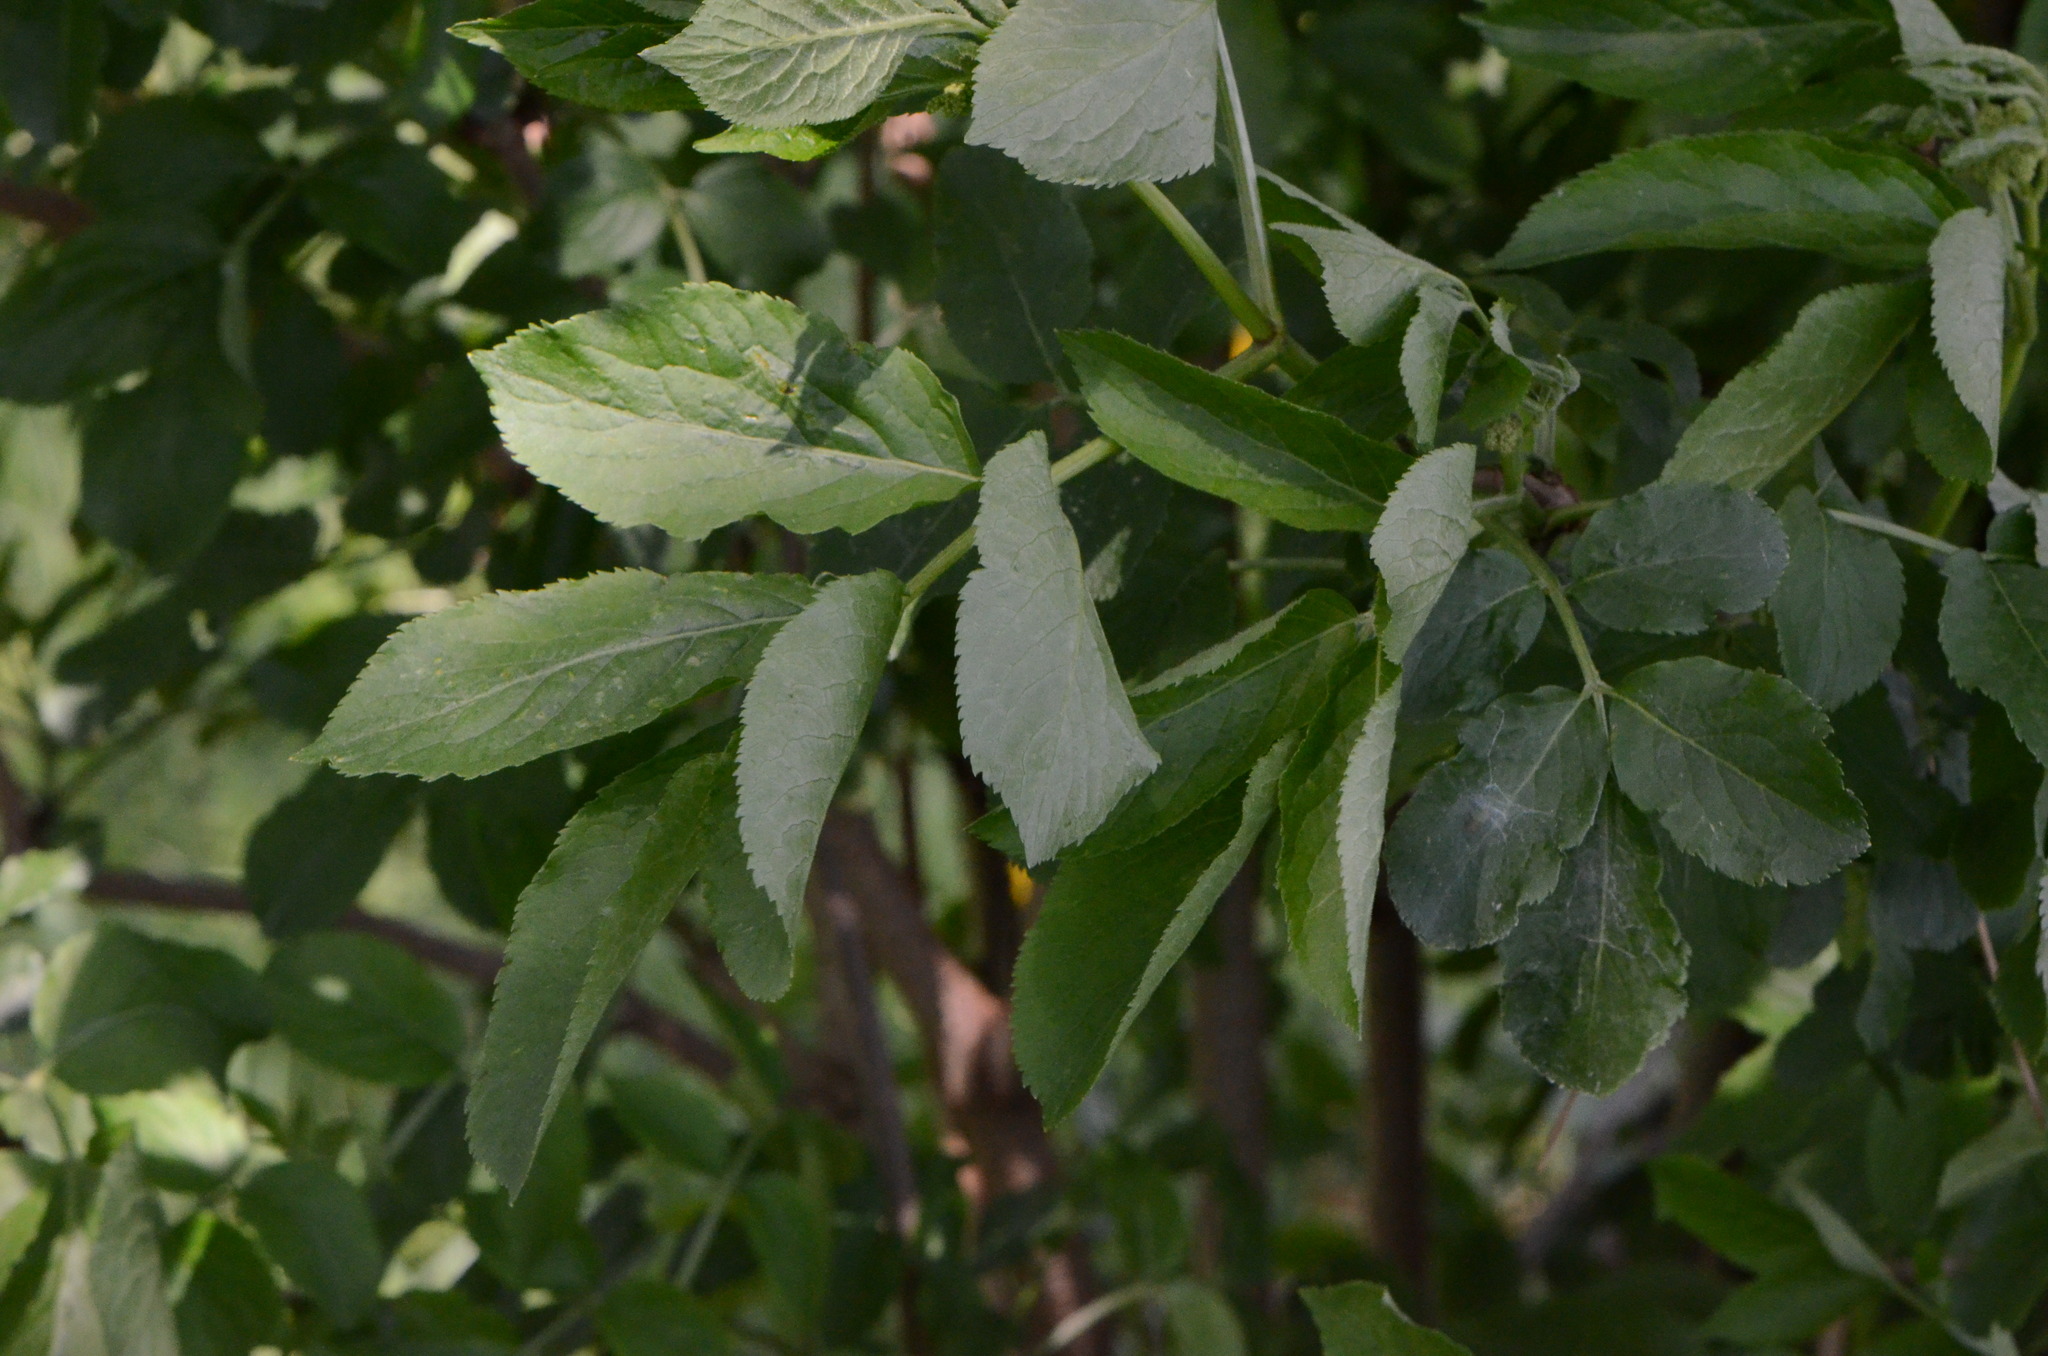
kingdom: Plantae
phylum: Tracheophyta
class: Magnoliopsida
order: Dipsacales
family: Viburnaceae
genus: Sambucus
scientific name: Sambucus nigra
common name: Elder
